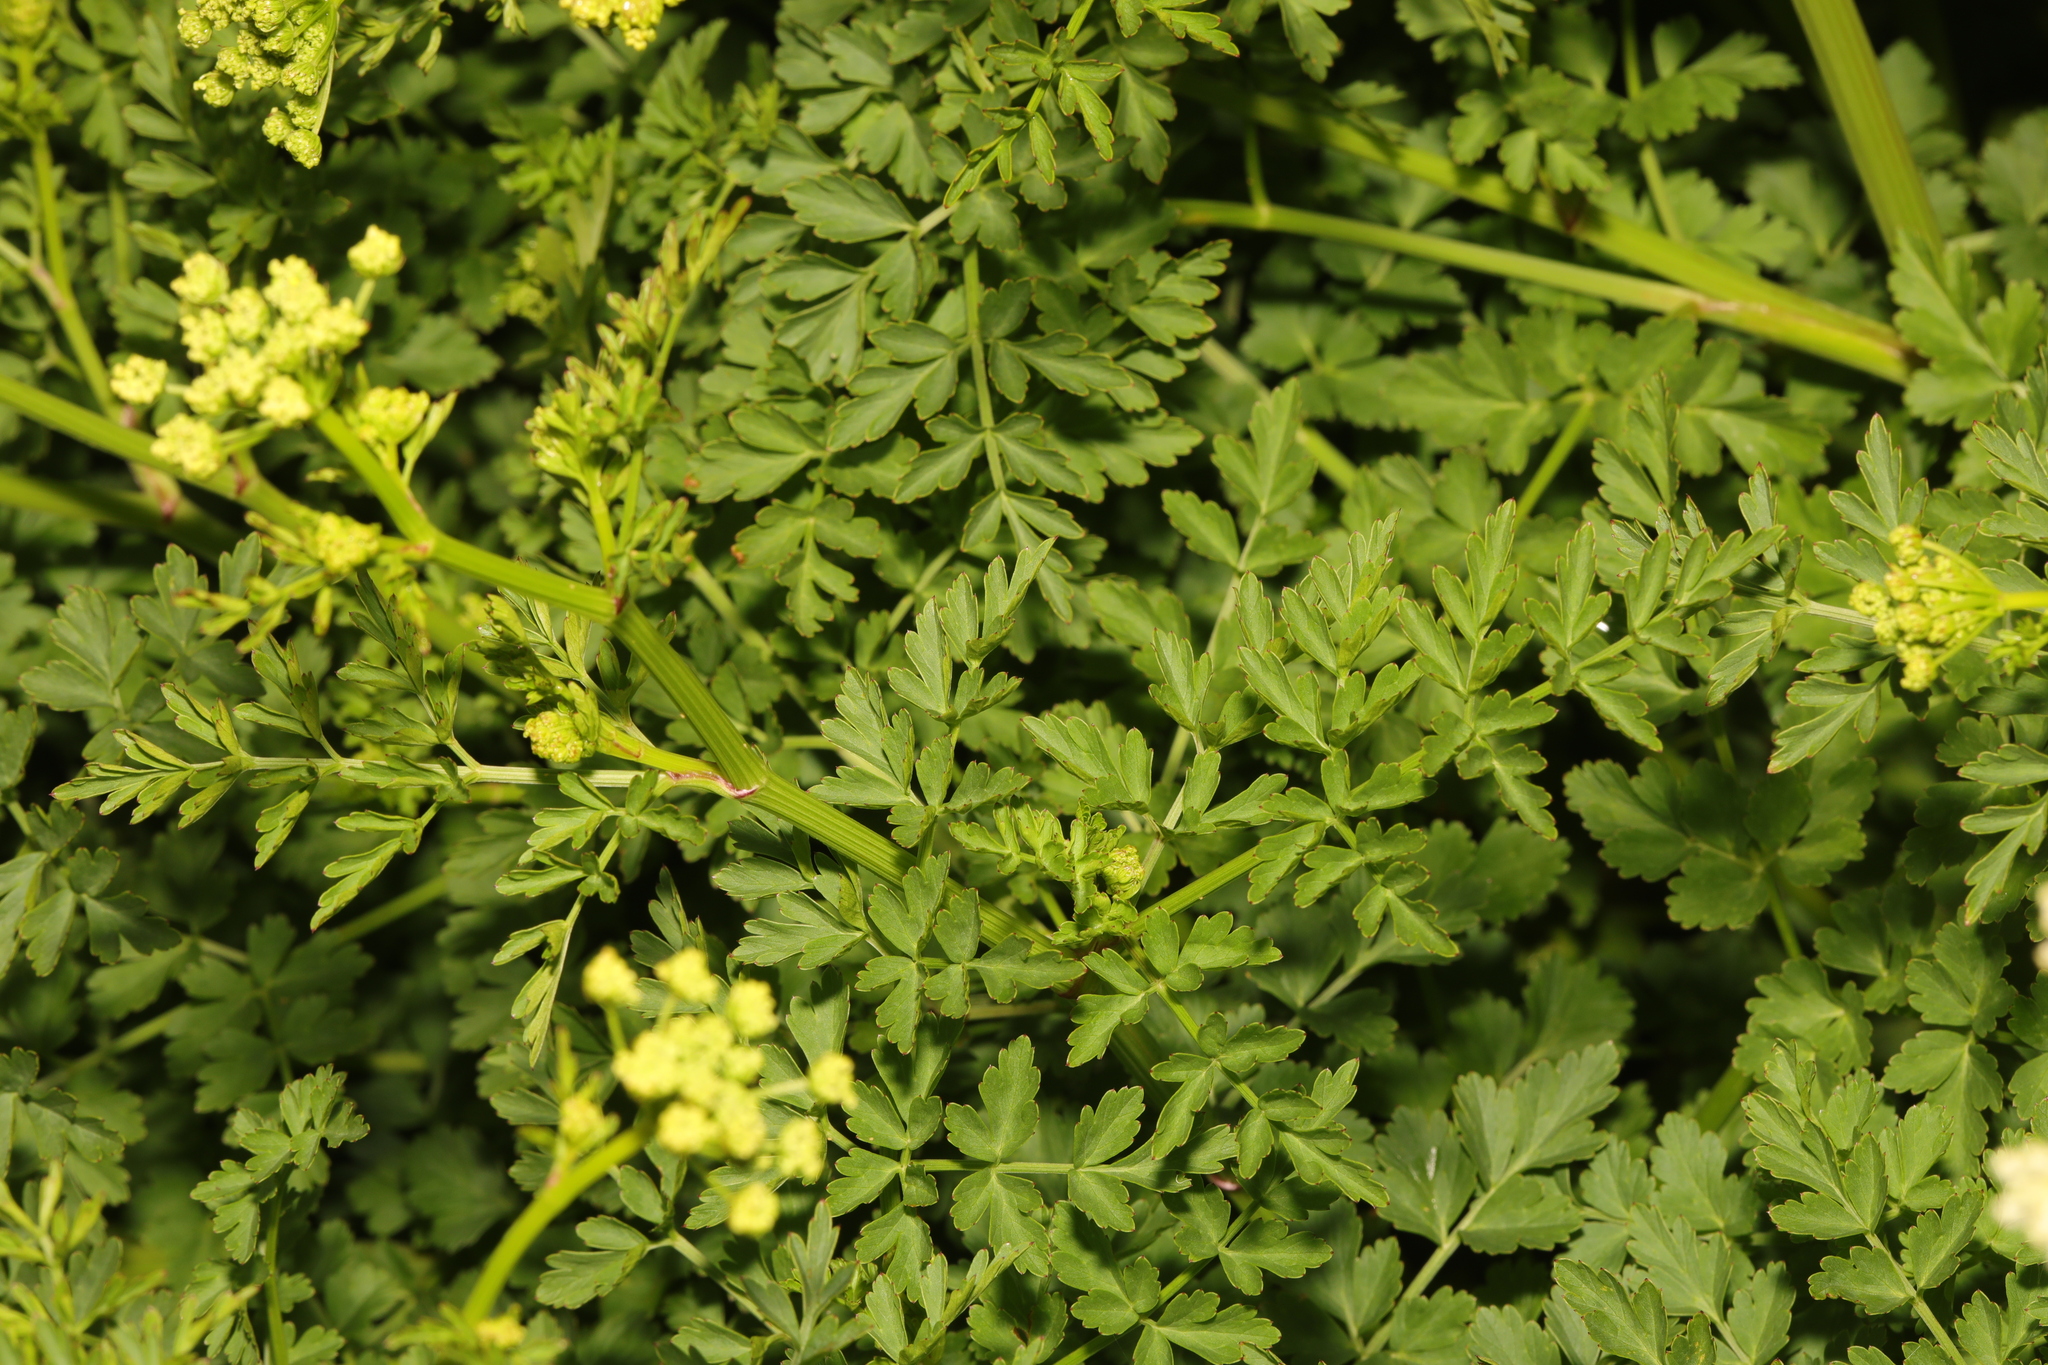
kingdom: Plantae
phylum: Tracheophyta
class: Magnoliopsida
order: Apiales
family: Apiaceae
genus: Oenanthe
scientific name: Oenanthe crocata
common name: Hemlock water-dropwort
